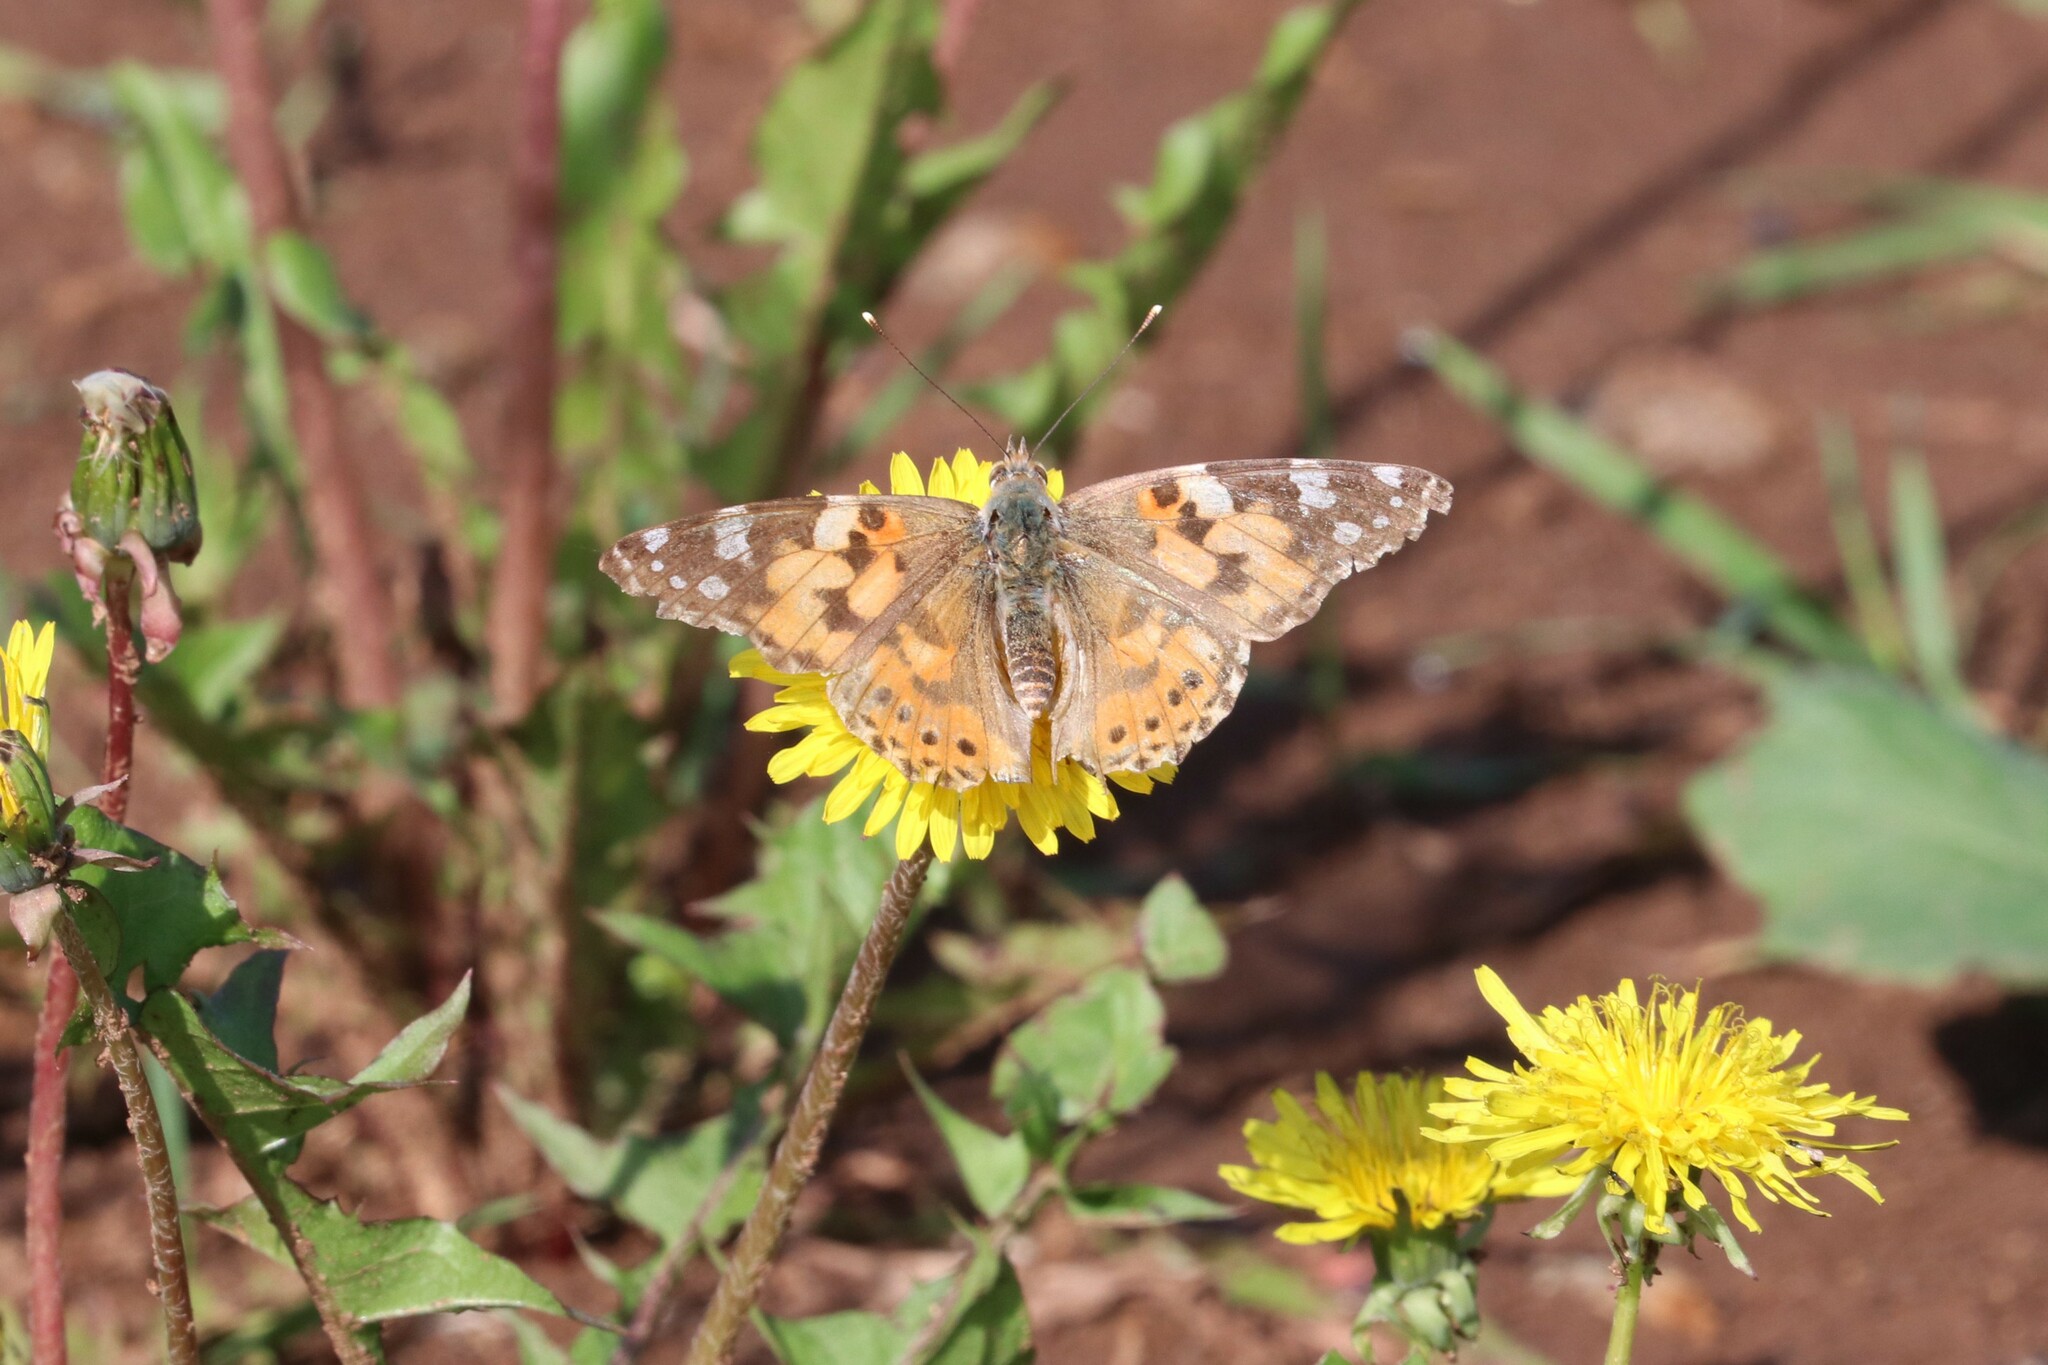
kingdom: Animalia
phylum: Arthropoda
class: Insecta
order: Lepidoptera
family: Nymphalidae
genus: Vanessa
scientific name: Vanessa cardui
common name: Painted lady
